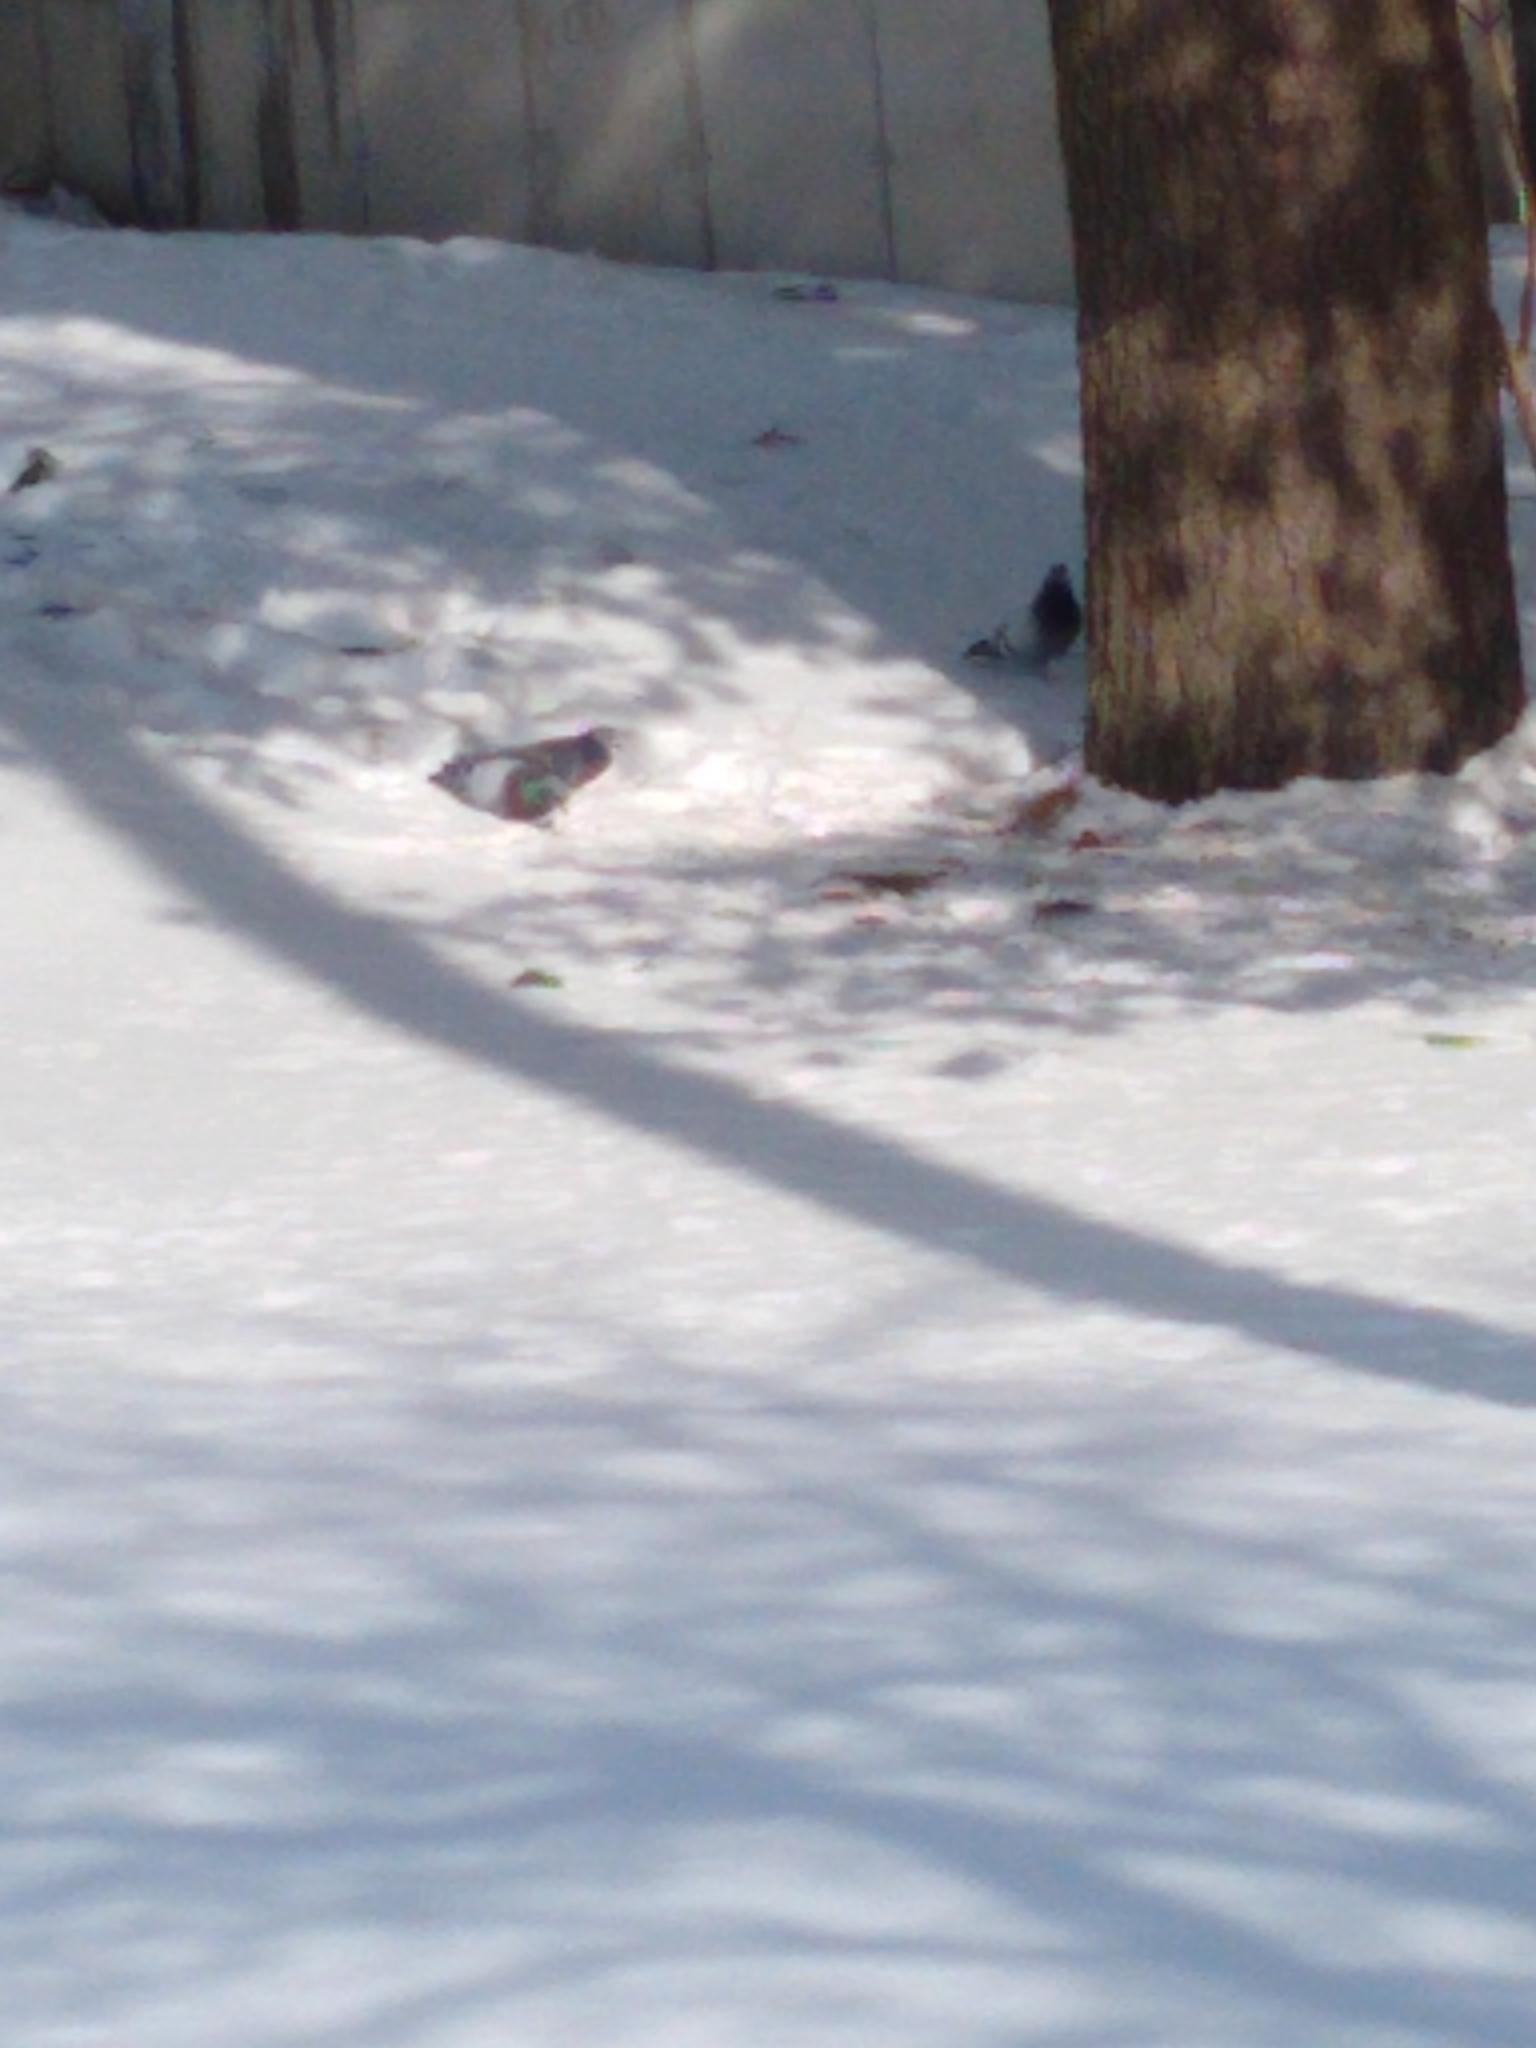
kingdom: Animalia
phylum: Chordata
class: Aves
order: Columbiformes
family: Columbidae
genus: Columba
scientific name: Columba livia
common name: Rock pigeon
